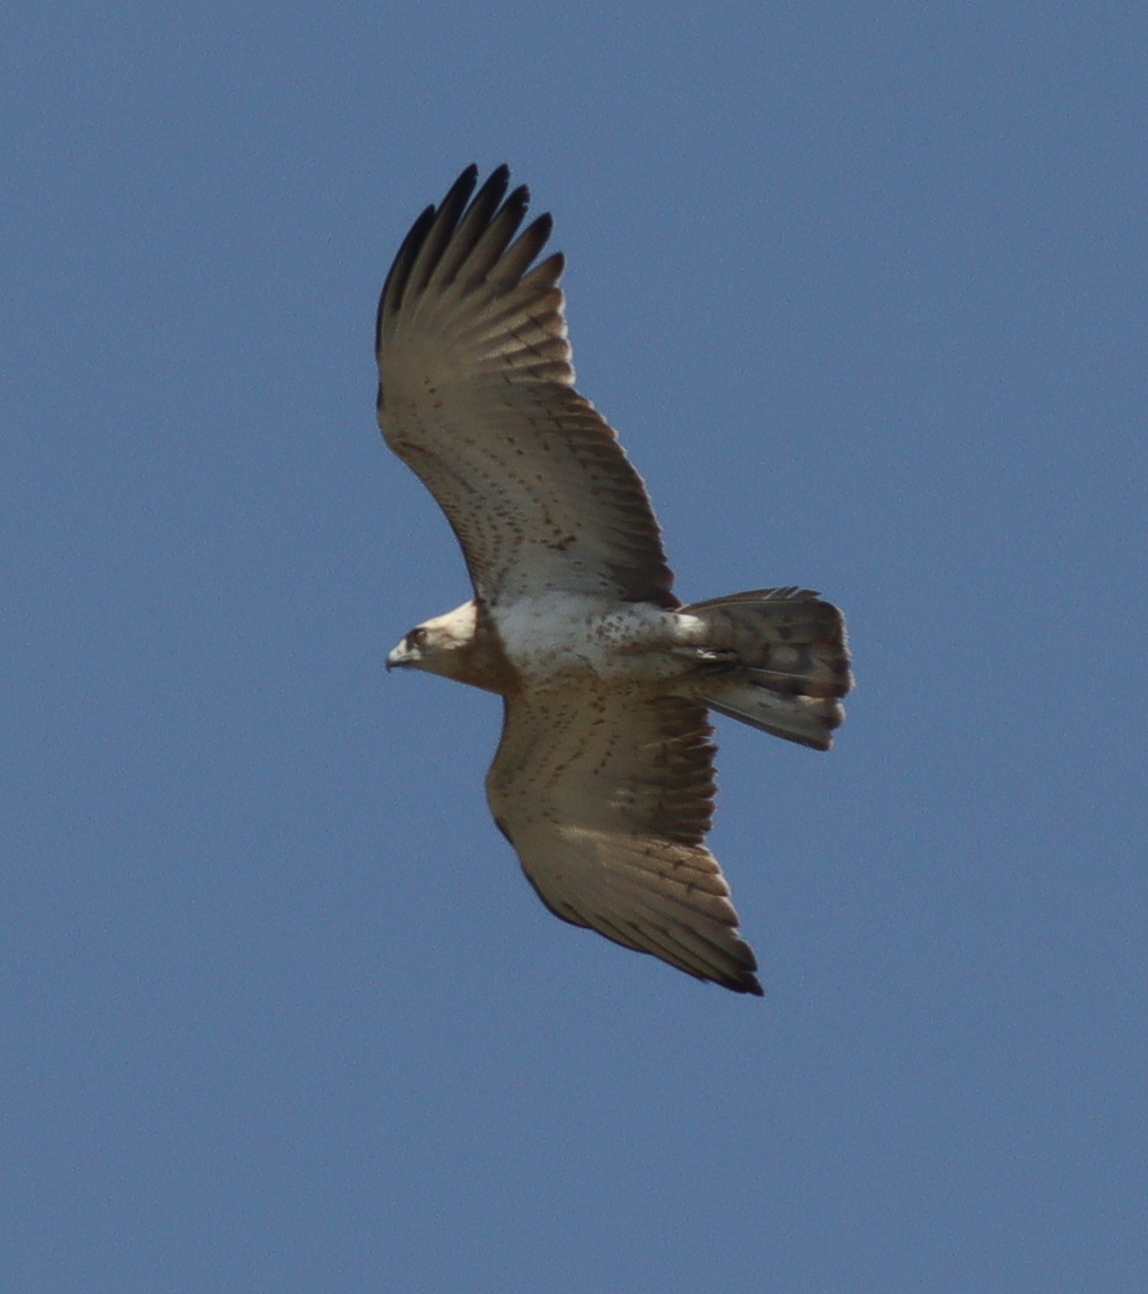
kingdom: Animalia
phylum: Chordata
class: Aves
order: Accipitriformes
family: Accipitridae
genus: Circaetus
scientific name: Circaetus gallicus
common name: Short-toed snake eagle
